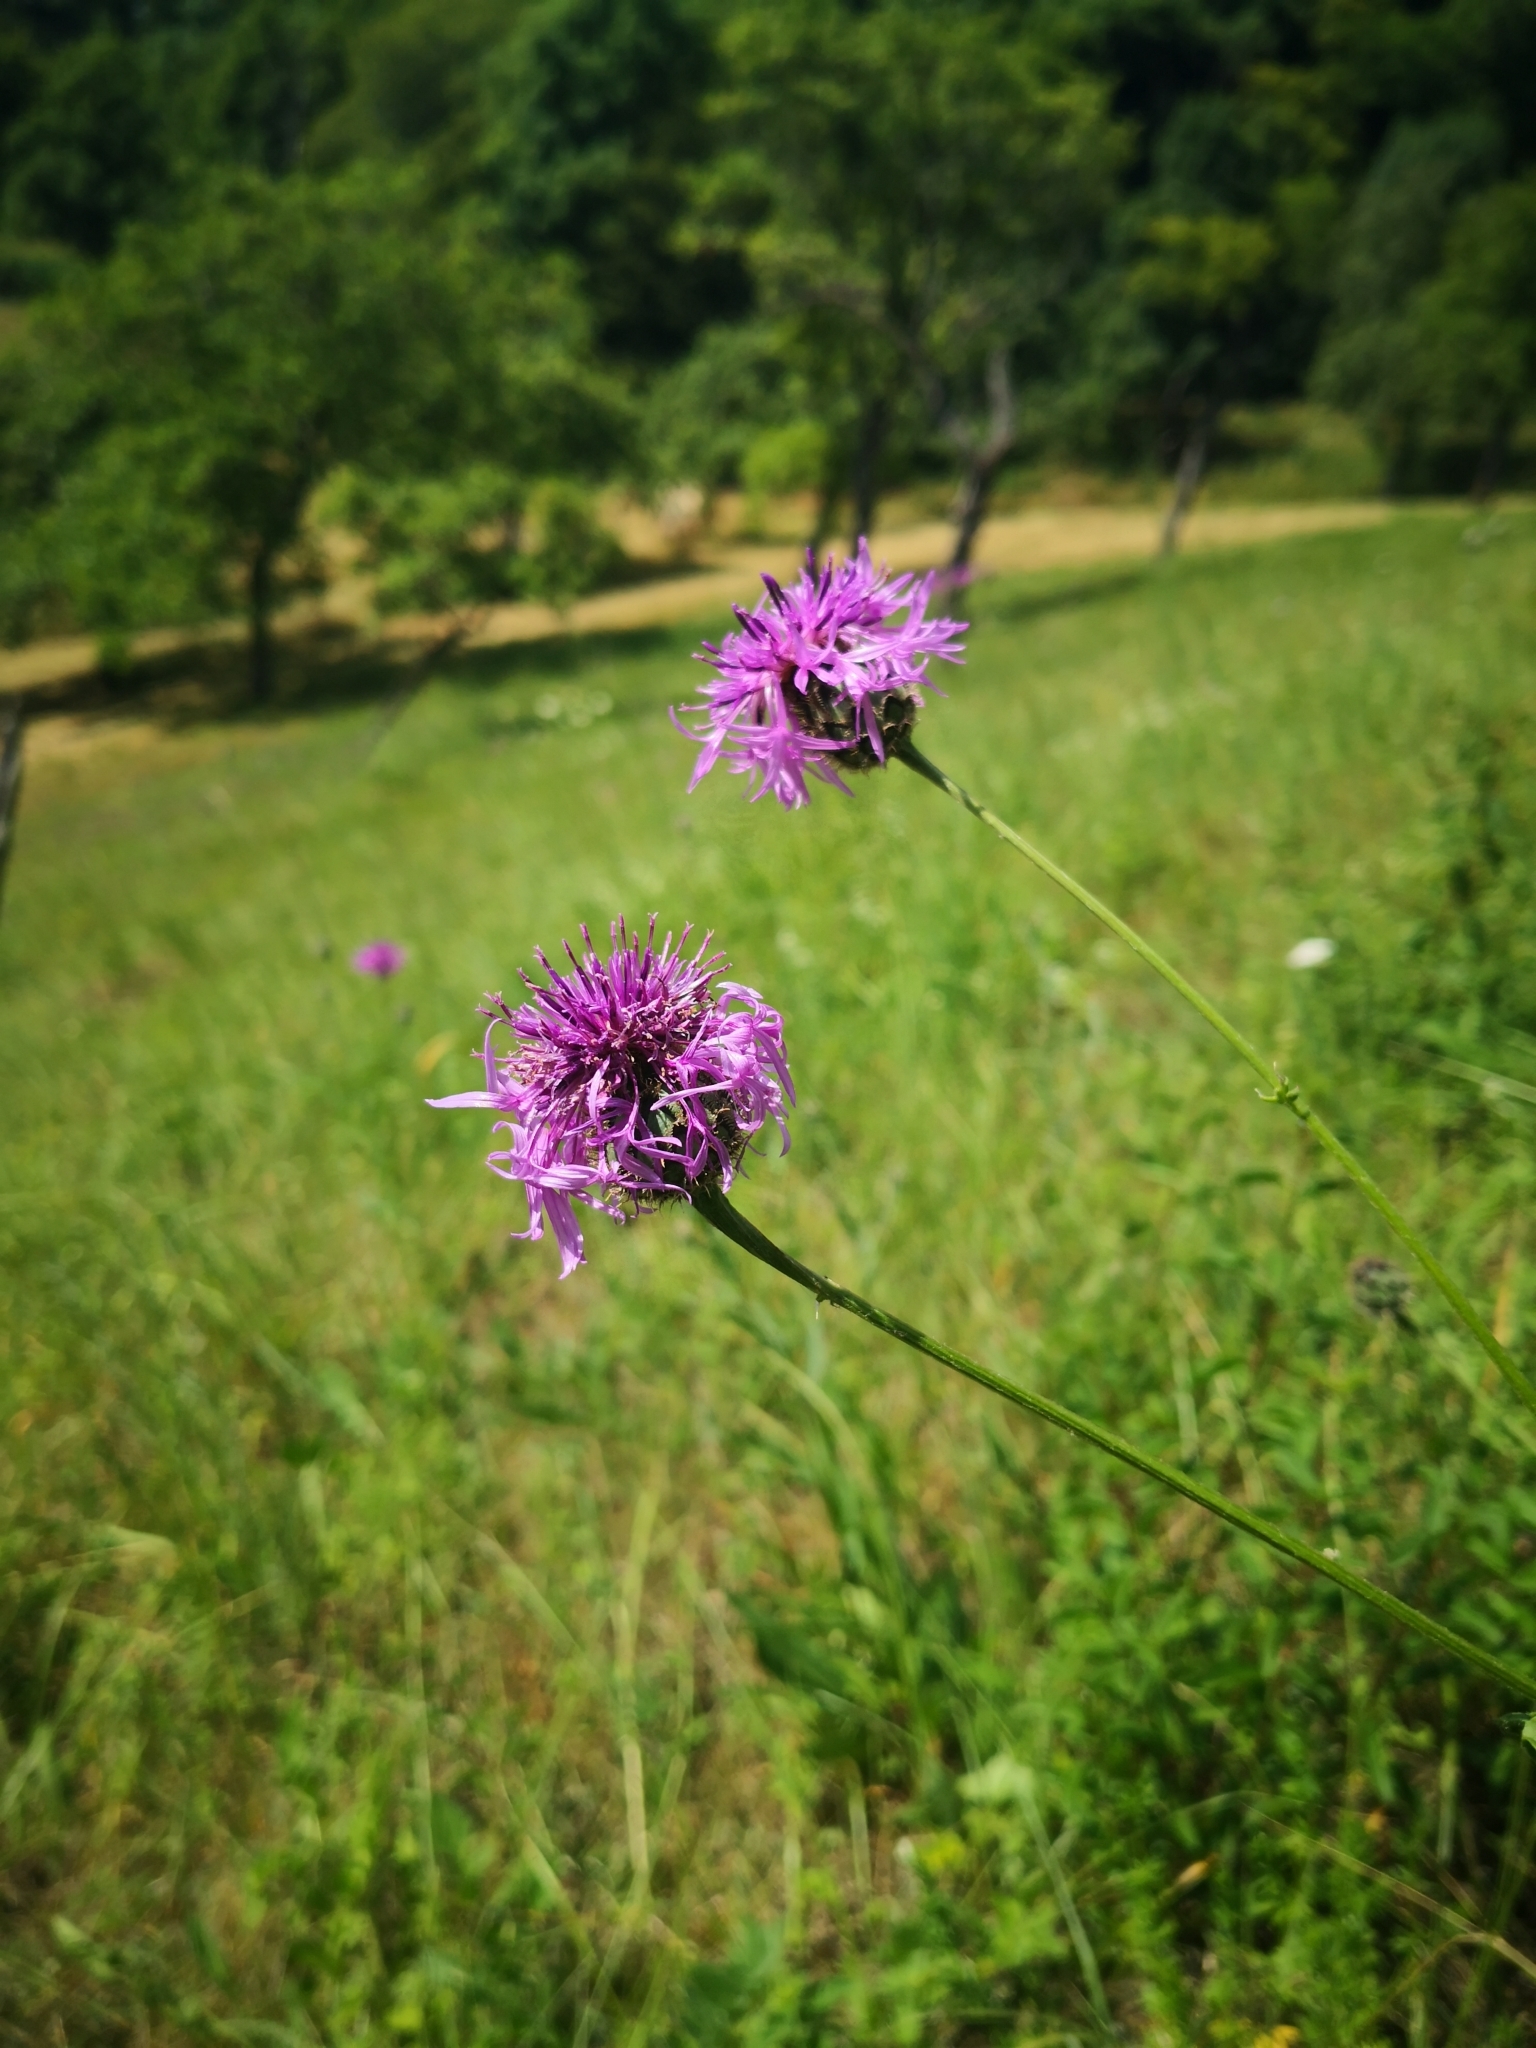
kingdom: Plantae
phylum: Tracheophyta
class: Magnoliopsida
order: Asterales
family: Asteraceae
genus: Centaurea
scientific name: Centaurea scabiosa
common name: Greater knapweed
